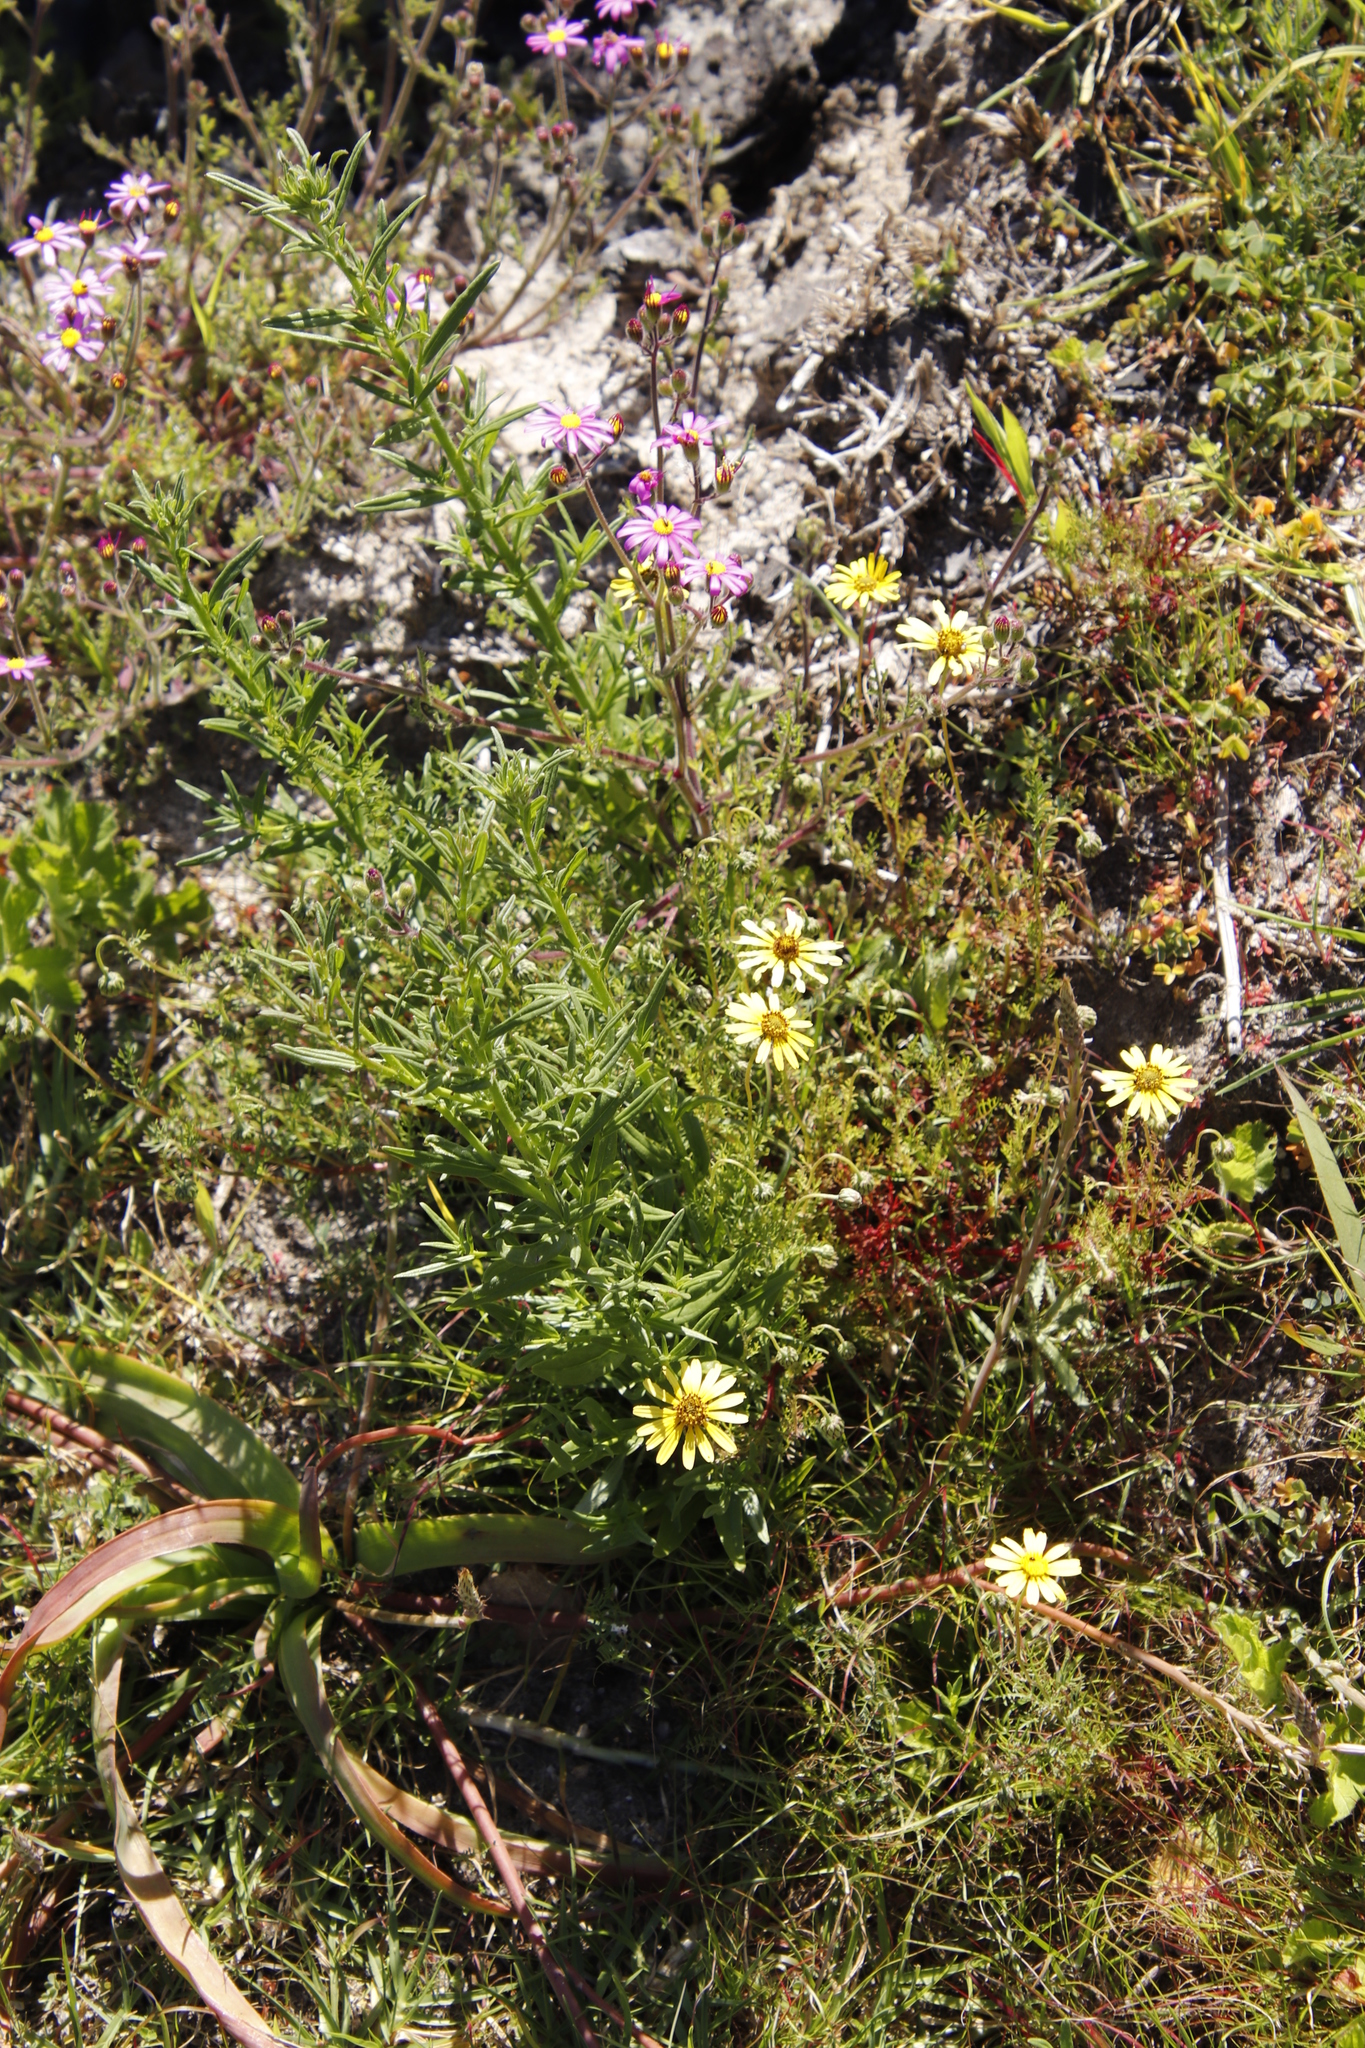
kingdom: Plantae
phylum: Tracheophyta
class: Magnoliopsida
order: Asterales
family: Asteraceae
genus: Ursinia
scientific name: Ursinia anthemoides
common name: Ursinia
